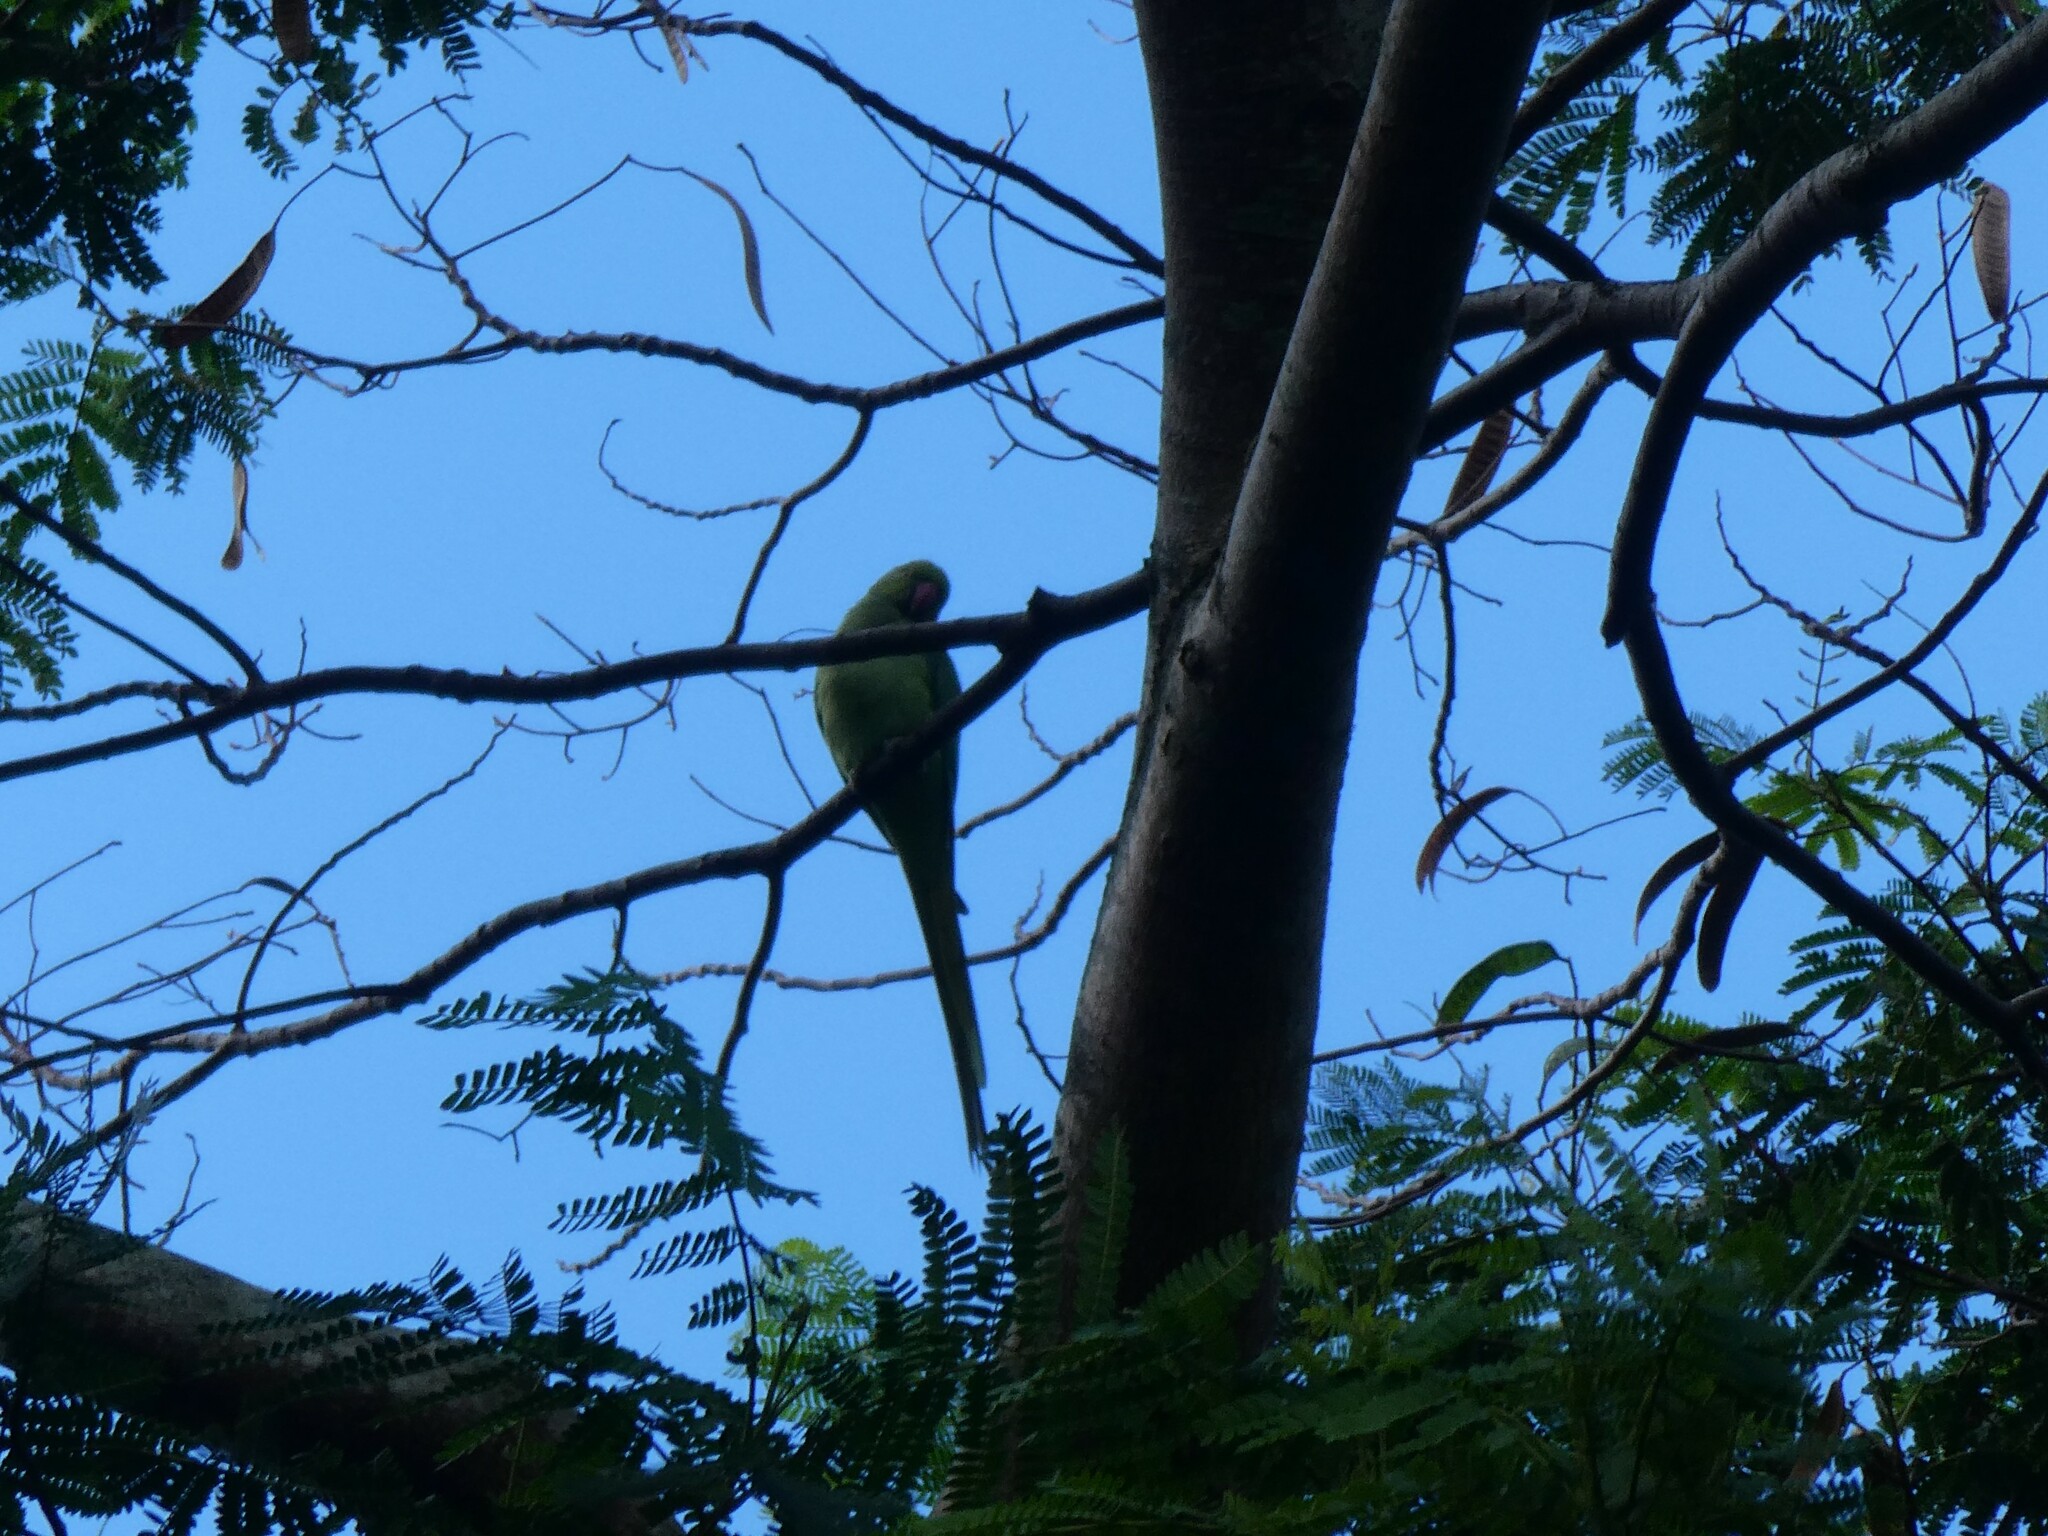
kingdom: Animalia
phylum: Chordata
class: Aves
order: Psittaciformes
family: Psittacidae
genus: Psittacula
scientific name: Psittacula krameri
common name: Rose-ringed parakeet
